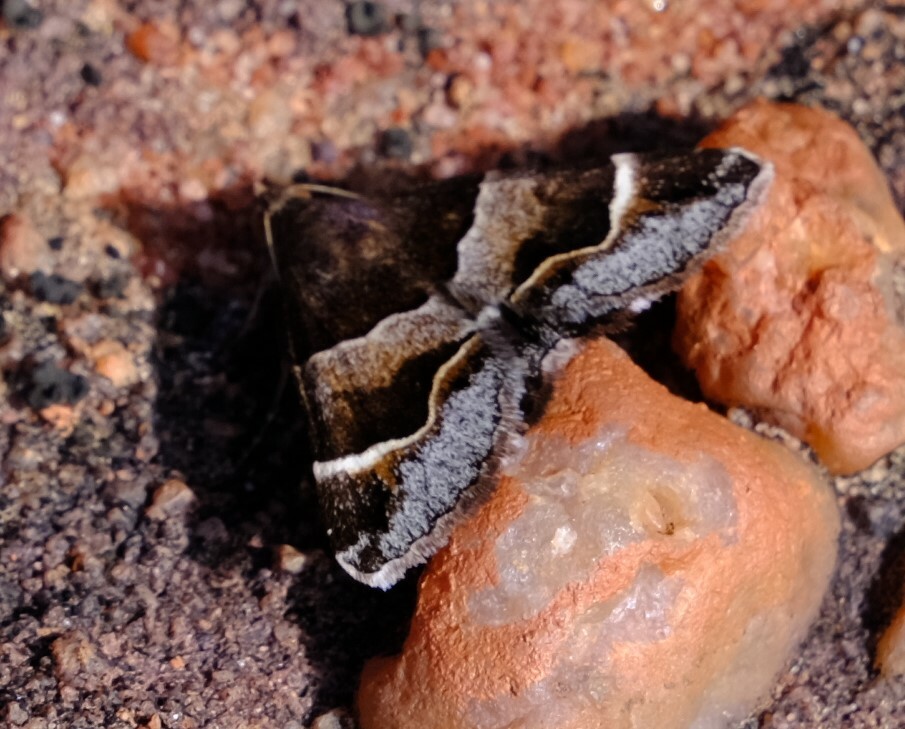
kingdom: Animalia
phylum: Arthropoda
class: Insecta
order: Lepidoptera
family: Erebidae
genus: Grammodes
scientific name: Grammodes diagarmma
